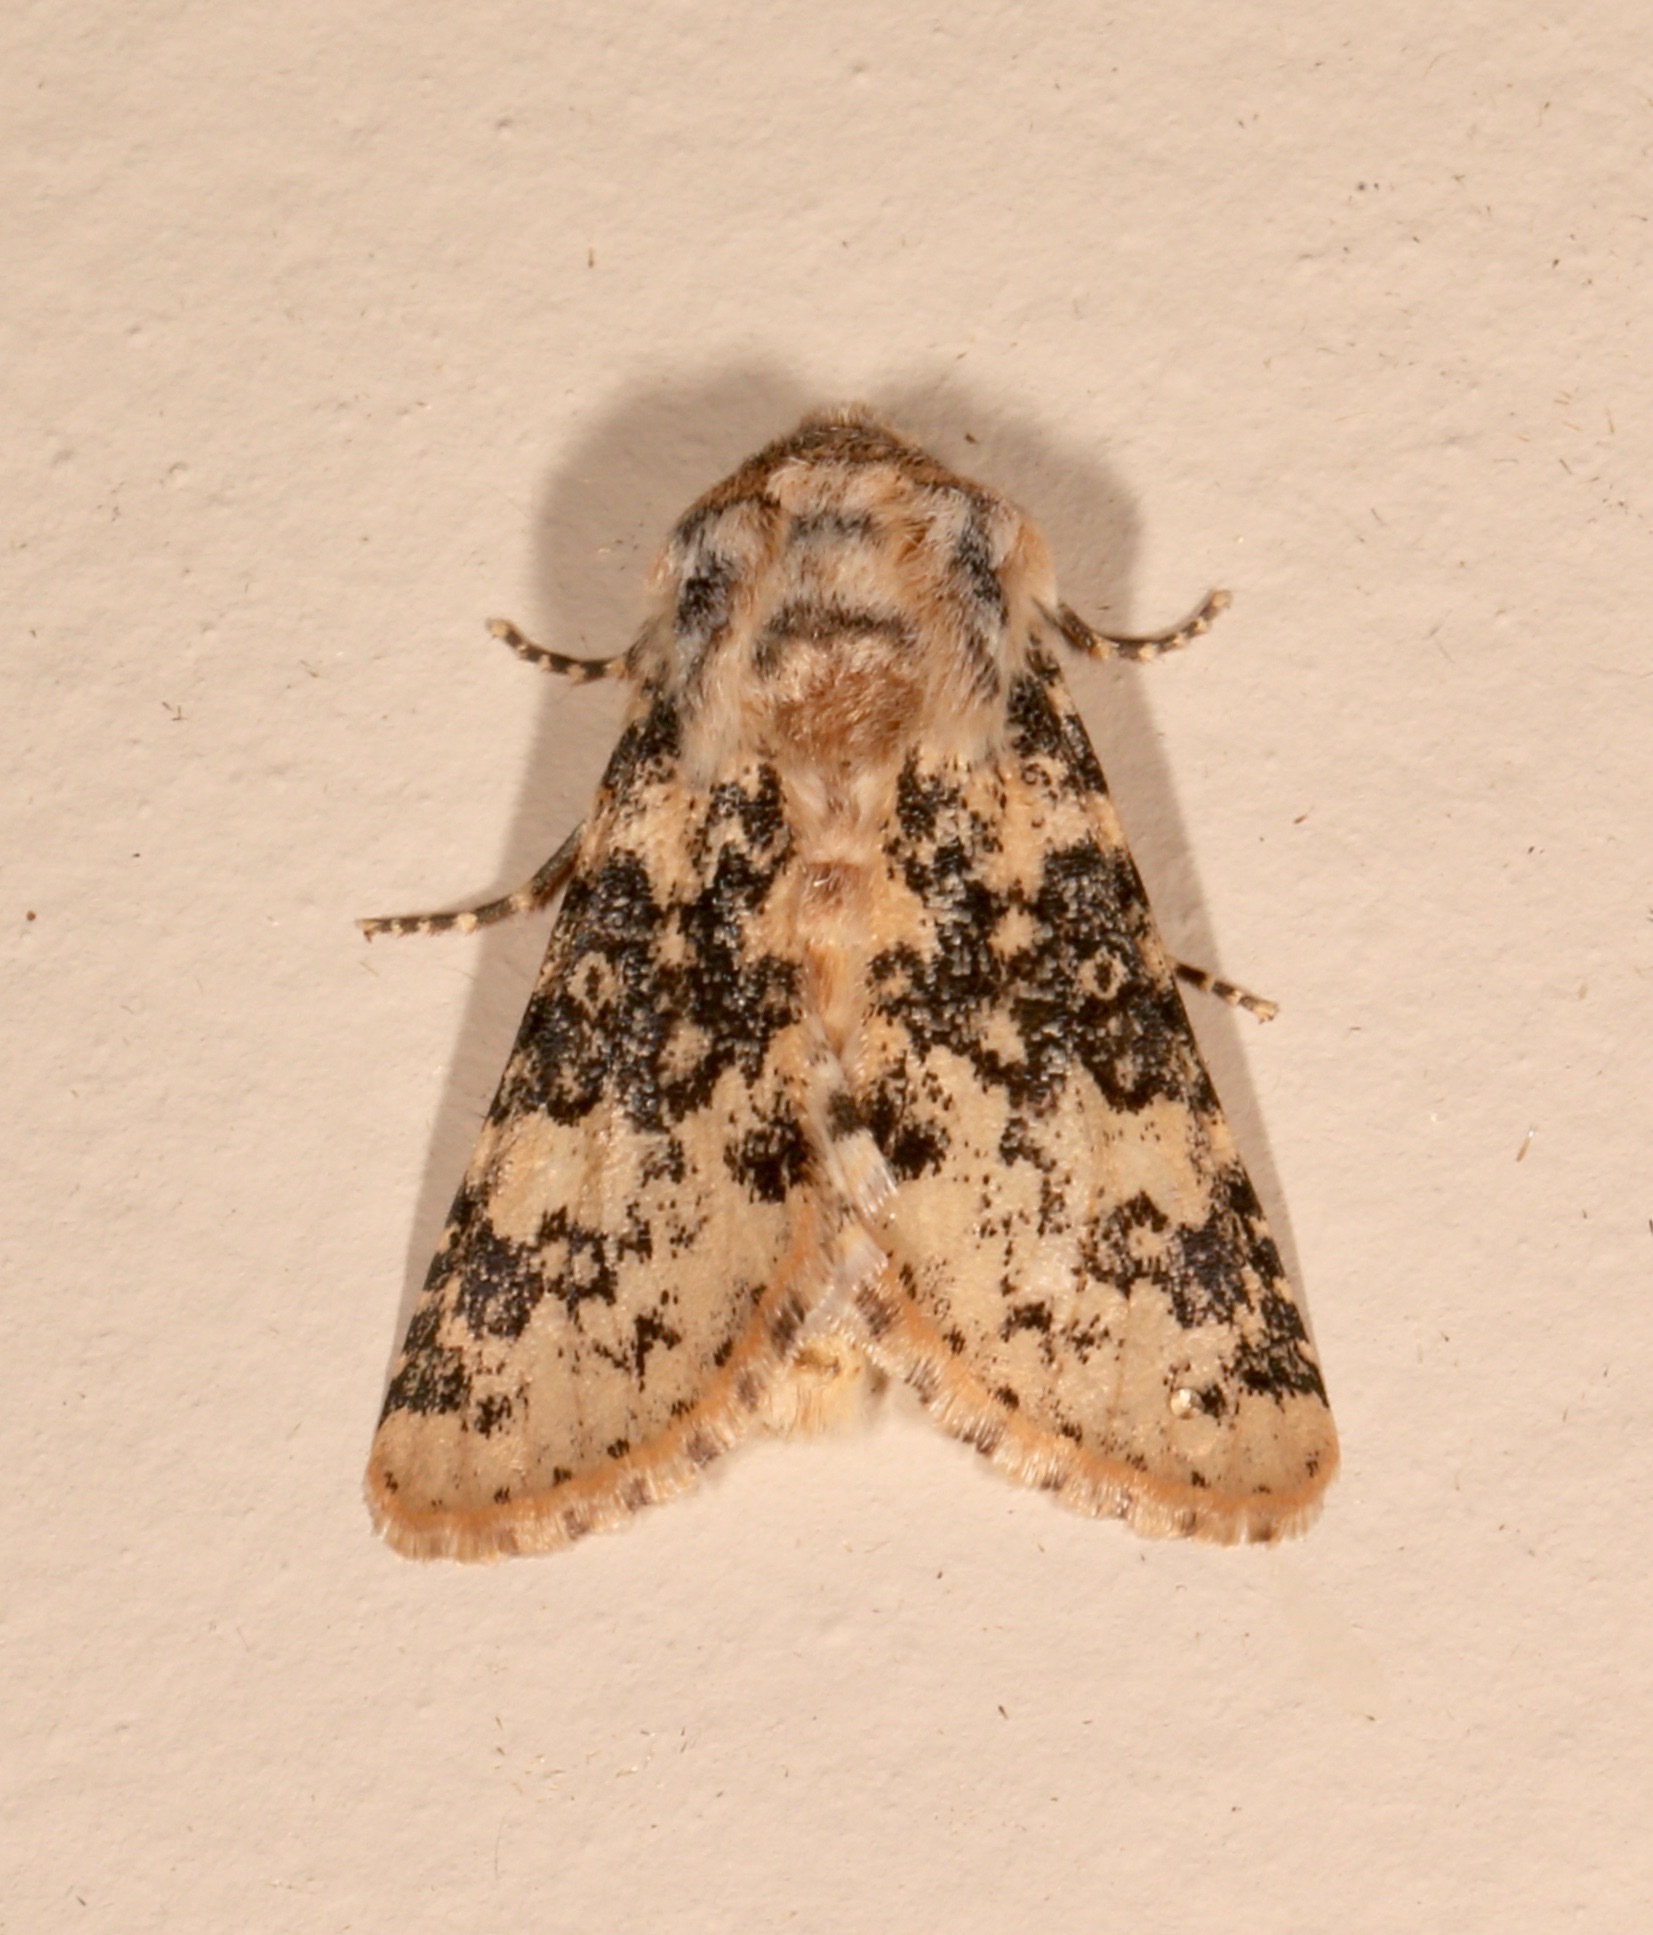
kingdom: Animalia
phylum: Arthropoda
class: Insecta
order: Lepidoptera
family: Noctuidae
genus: Unciella
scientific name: Unciella primula
